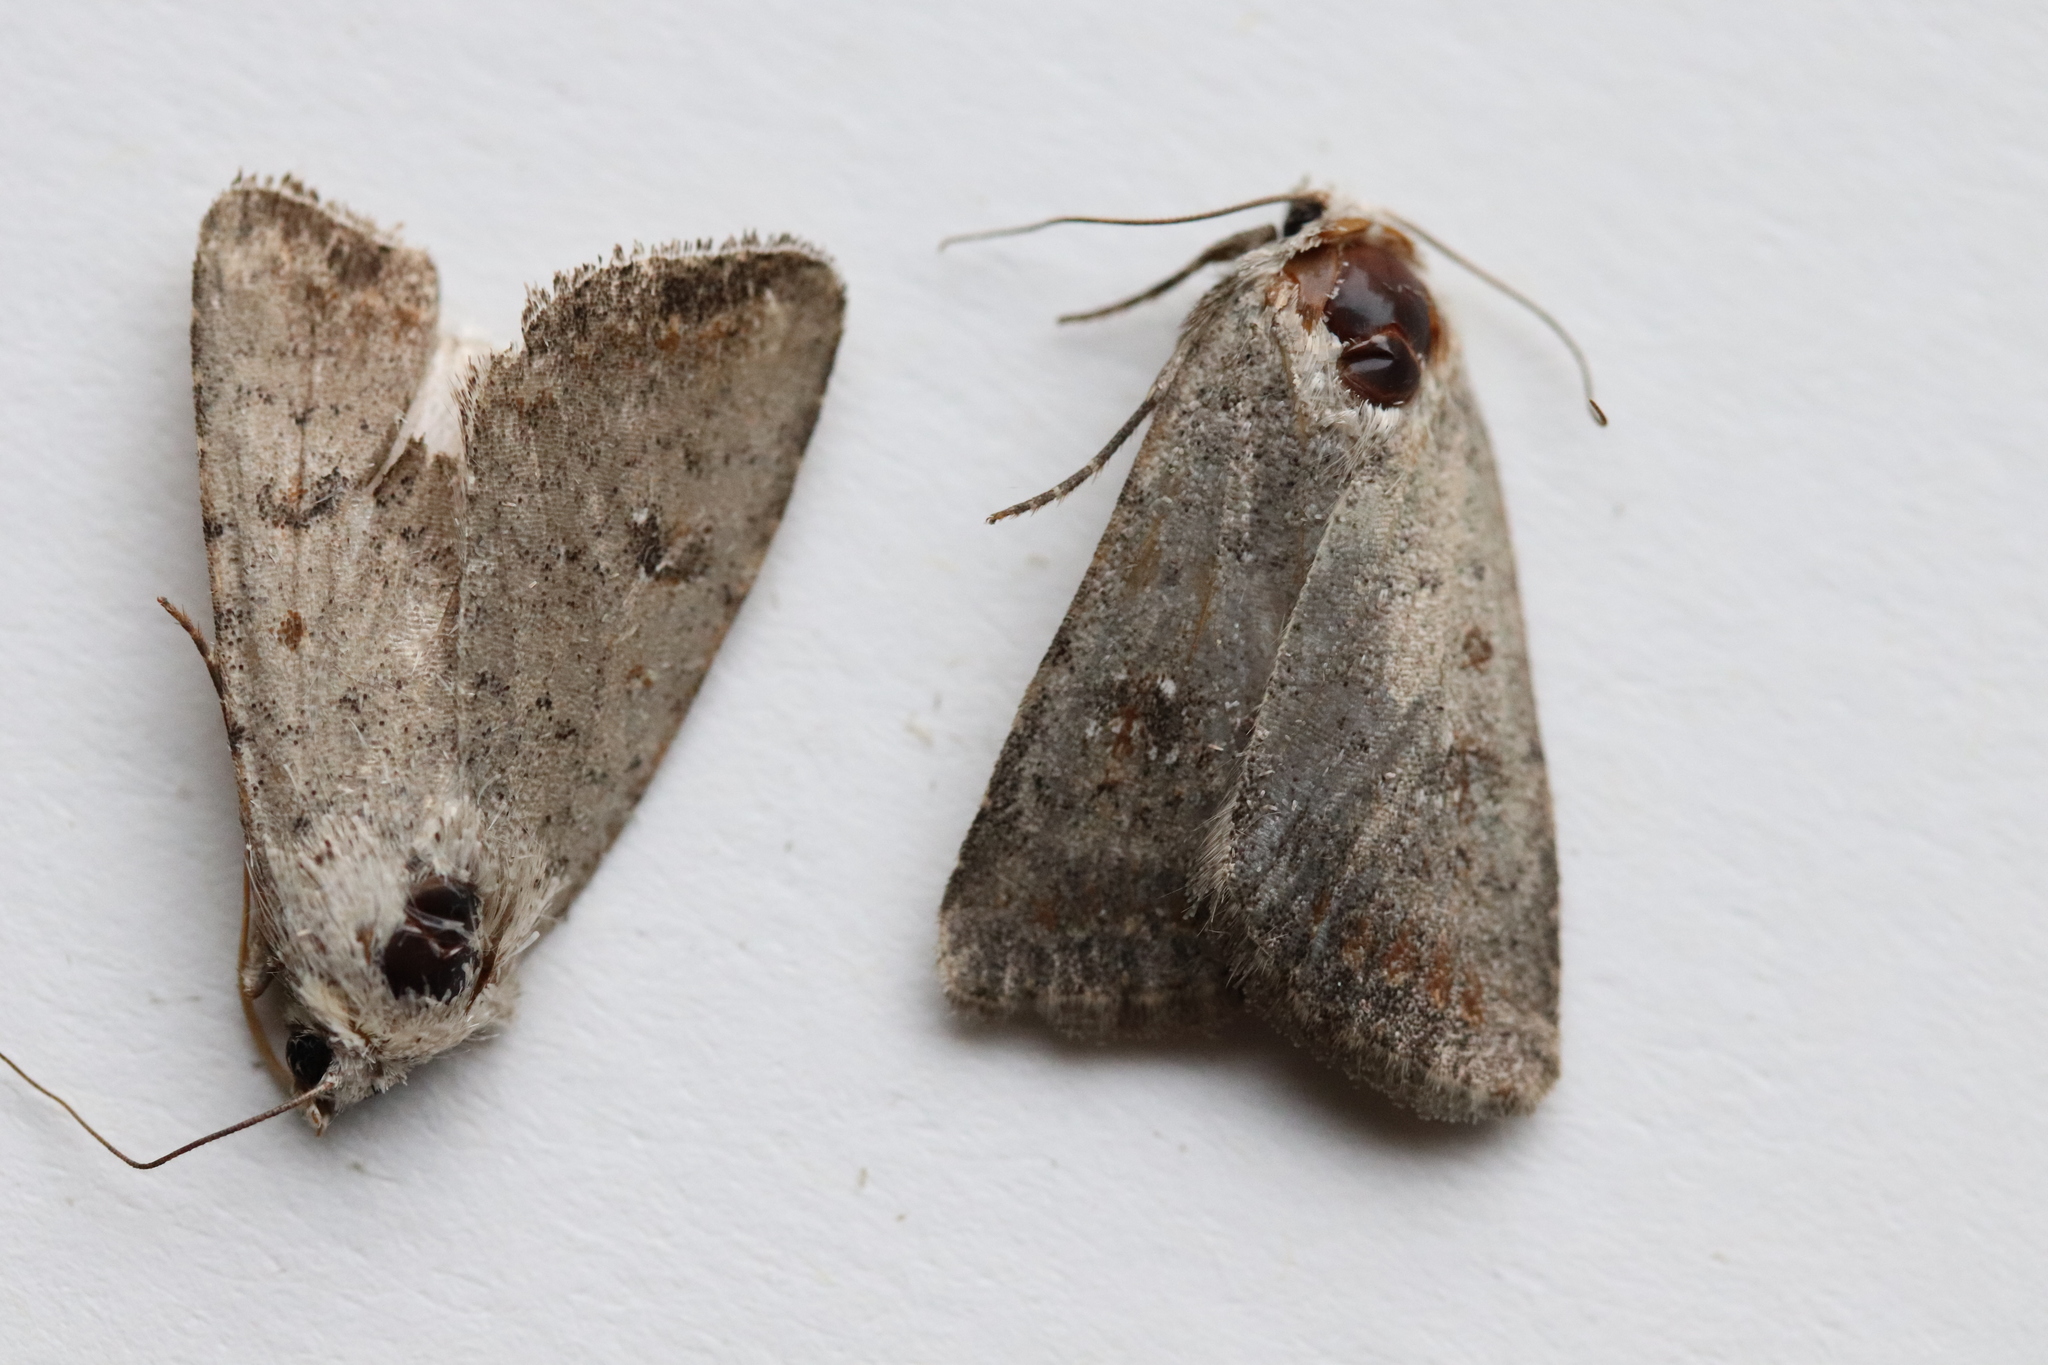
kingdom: Animalia
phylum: Arthropoda
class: Insecta
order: Lepidoptera
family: Noctuidae
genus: Caradrina
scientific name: Caradrina montana
